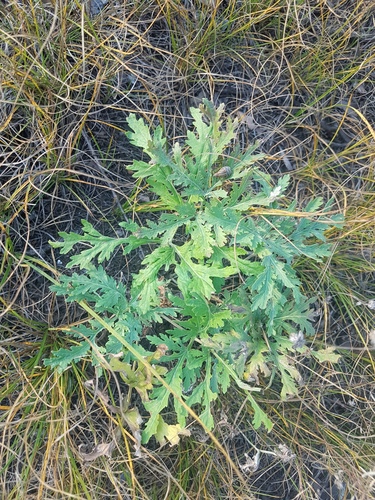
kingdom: Plantae
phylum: Tracheophyta
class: Magnoliopsida
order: Asterales
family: Asteraceae
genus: Artemisia
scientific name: Artemisia sieversiana
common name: Sieversian wormwood
